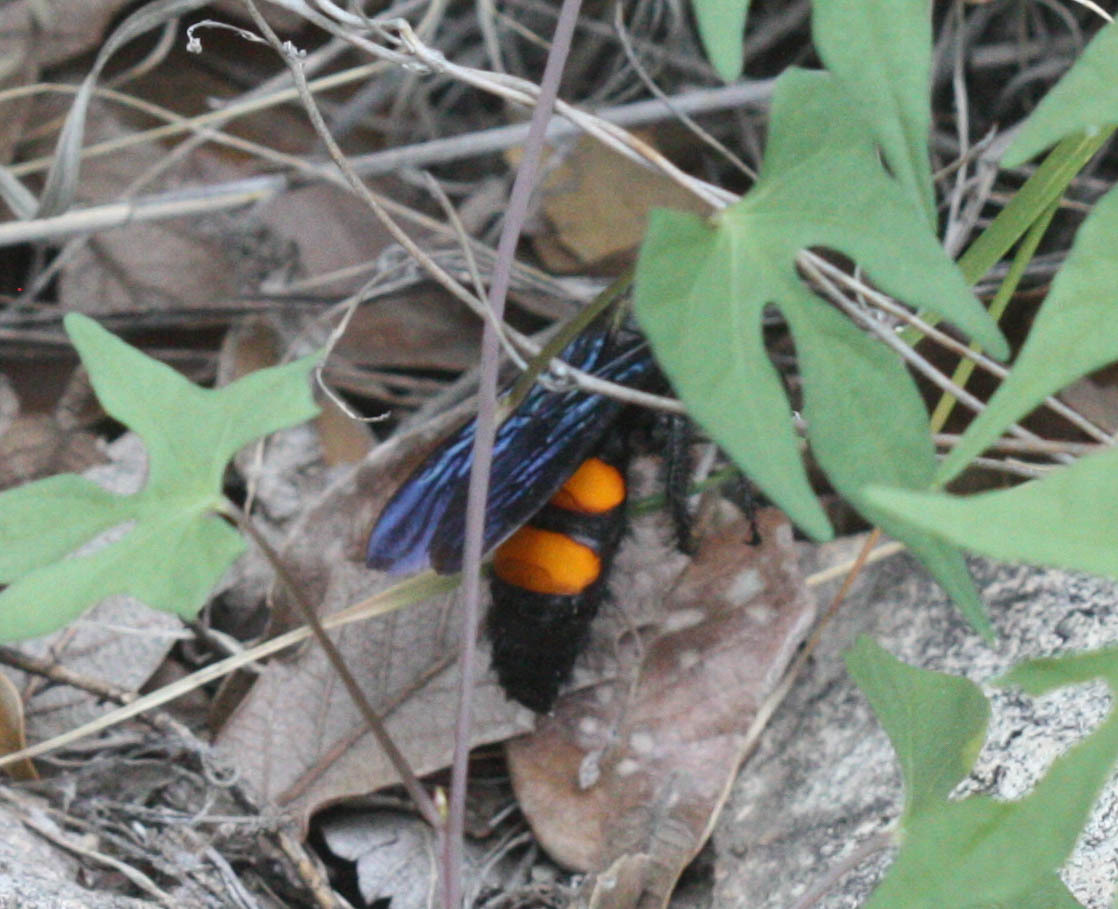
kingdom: Animalia
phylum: Arthropoda
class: Insecta
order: Hymenoptera
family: Scoliidae
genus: Pygodasis
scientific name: Pygodasis ephippium
